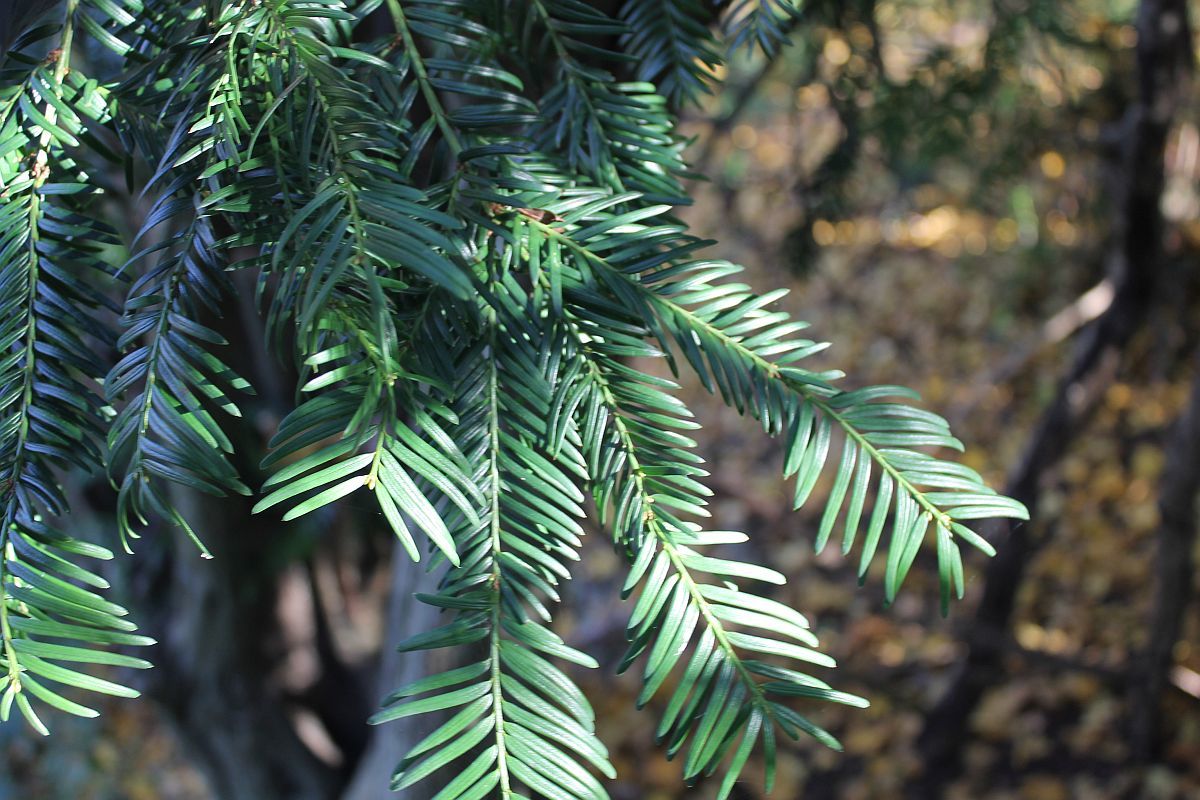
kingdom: Plantae
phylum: Tracheophyta
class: Pinopsida
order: Pinales
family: Taxaceae
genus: Taxus
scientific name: Taxus baccata
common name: Yew
